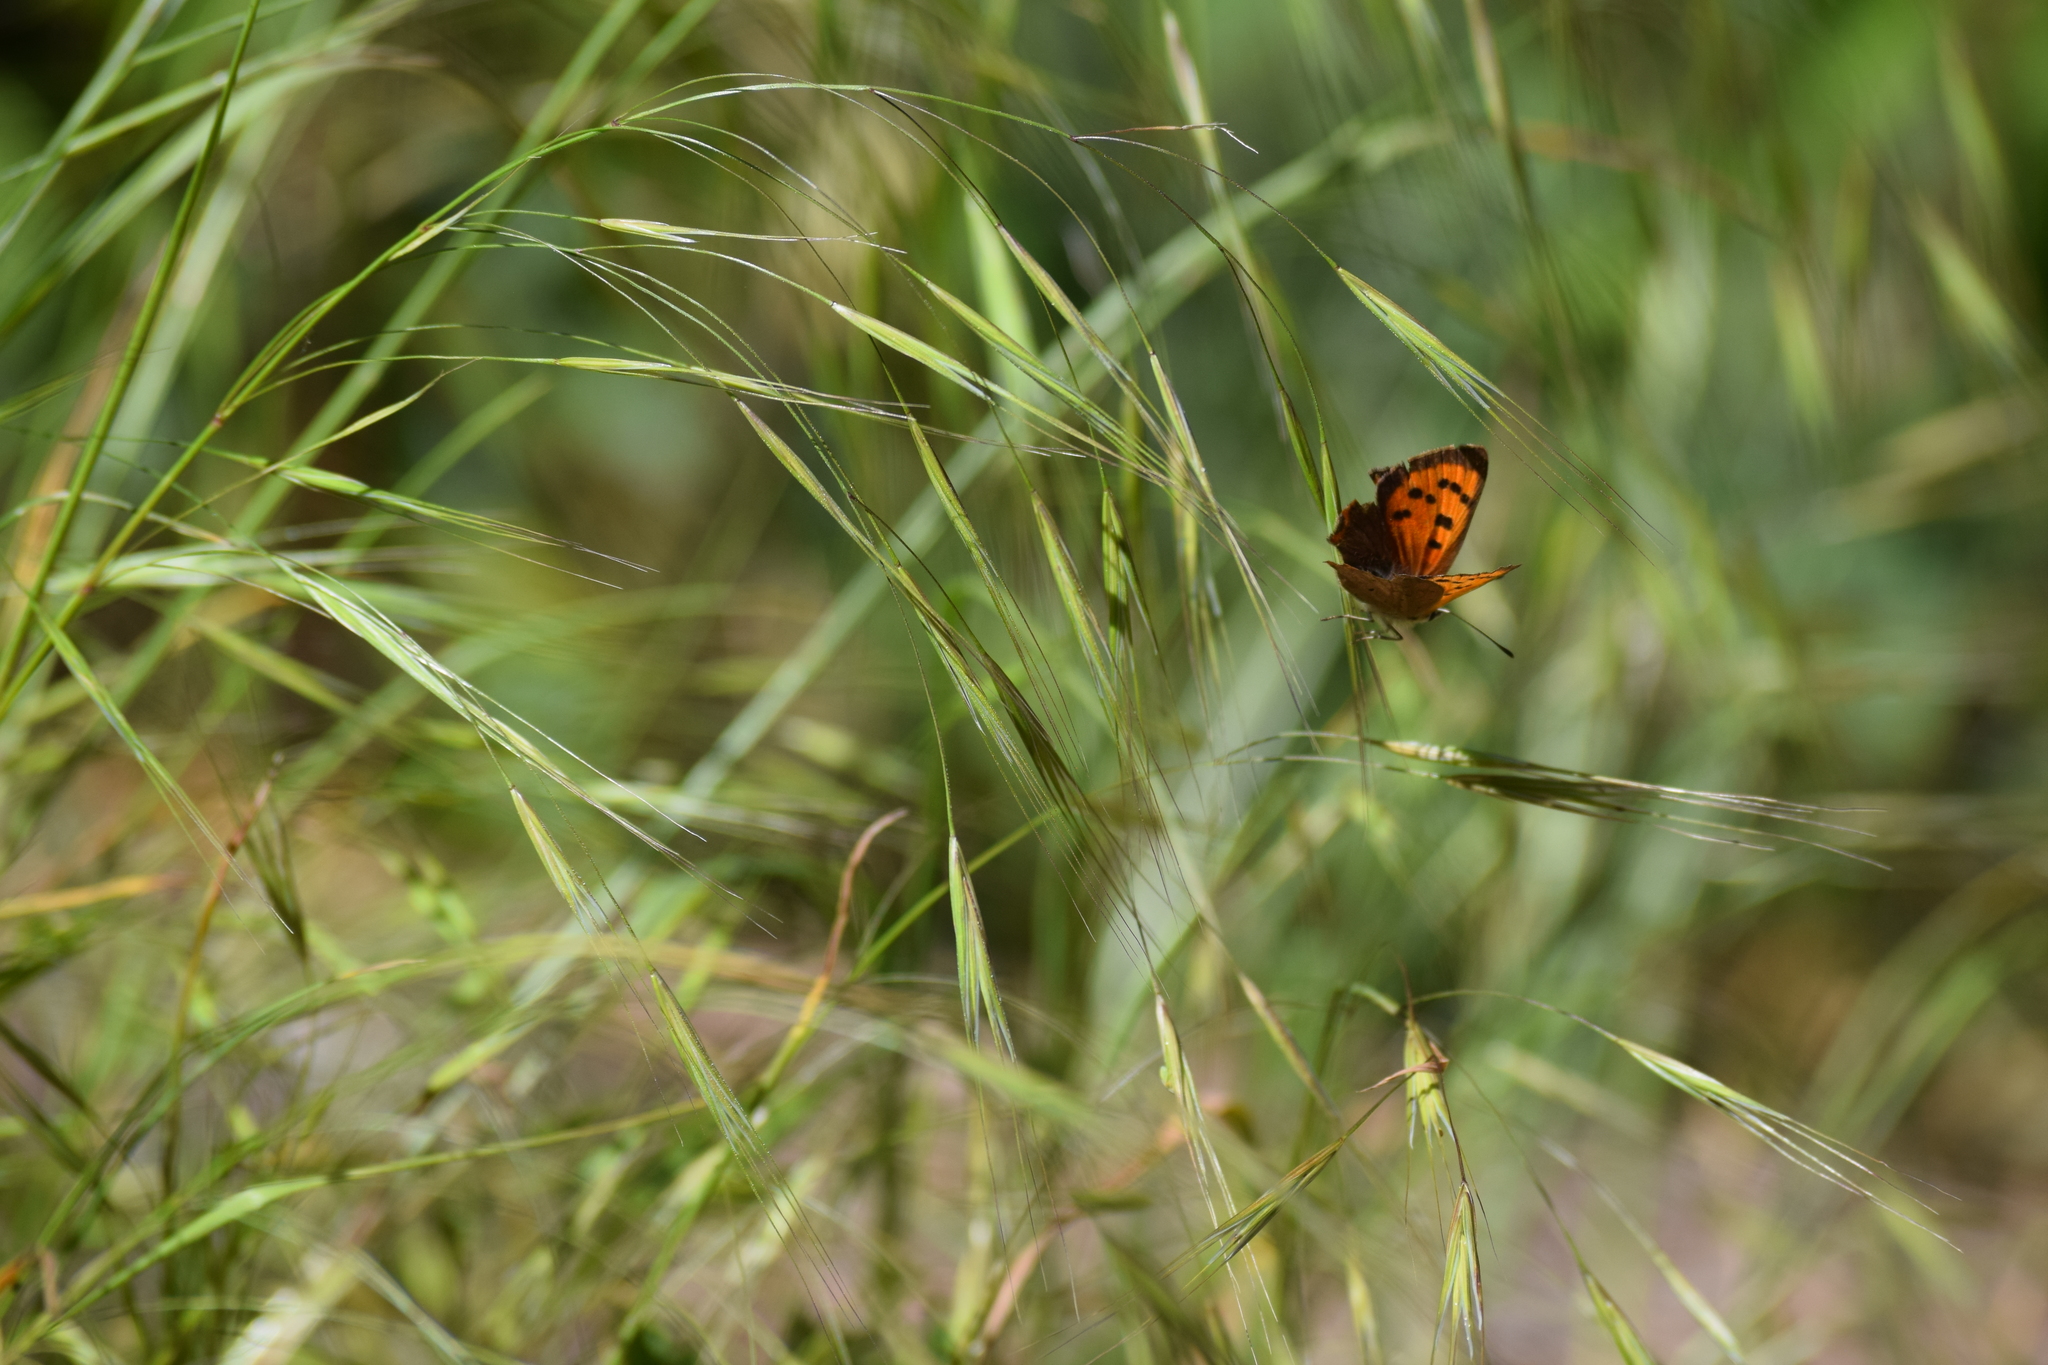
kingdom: Animalia
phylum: Arthropoda
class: Insecta
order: Lepidoptera
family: Lycaenidae
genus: Lycaena
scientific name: Lycaena phlaeas
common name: Small copper
